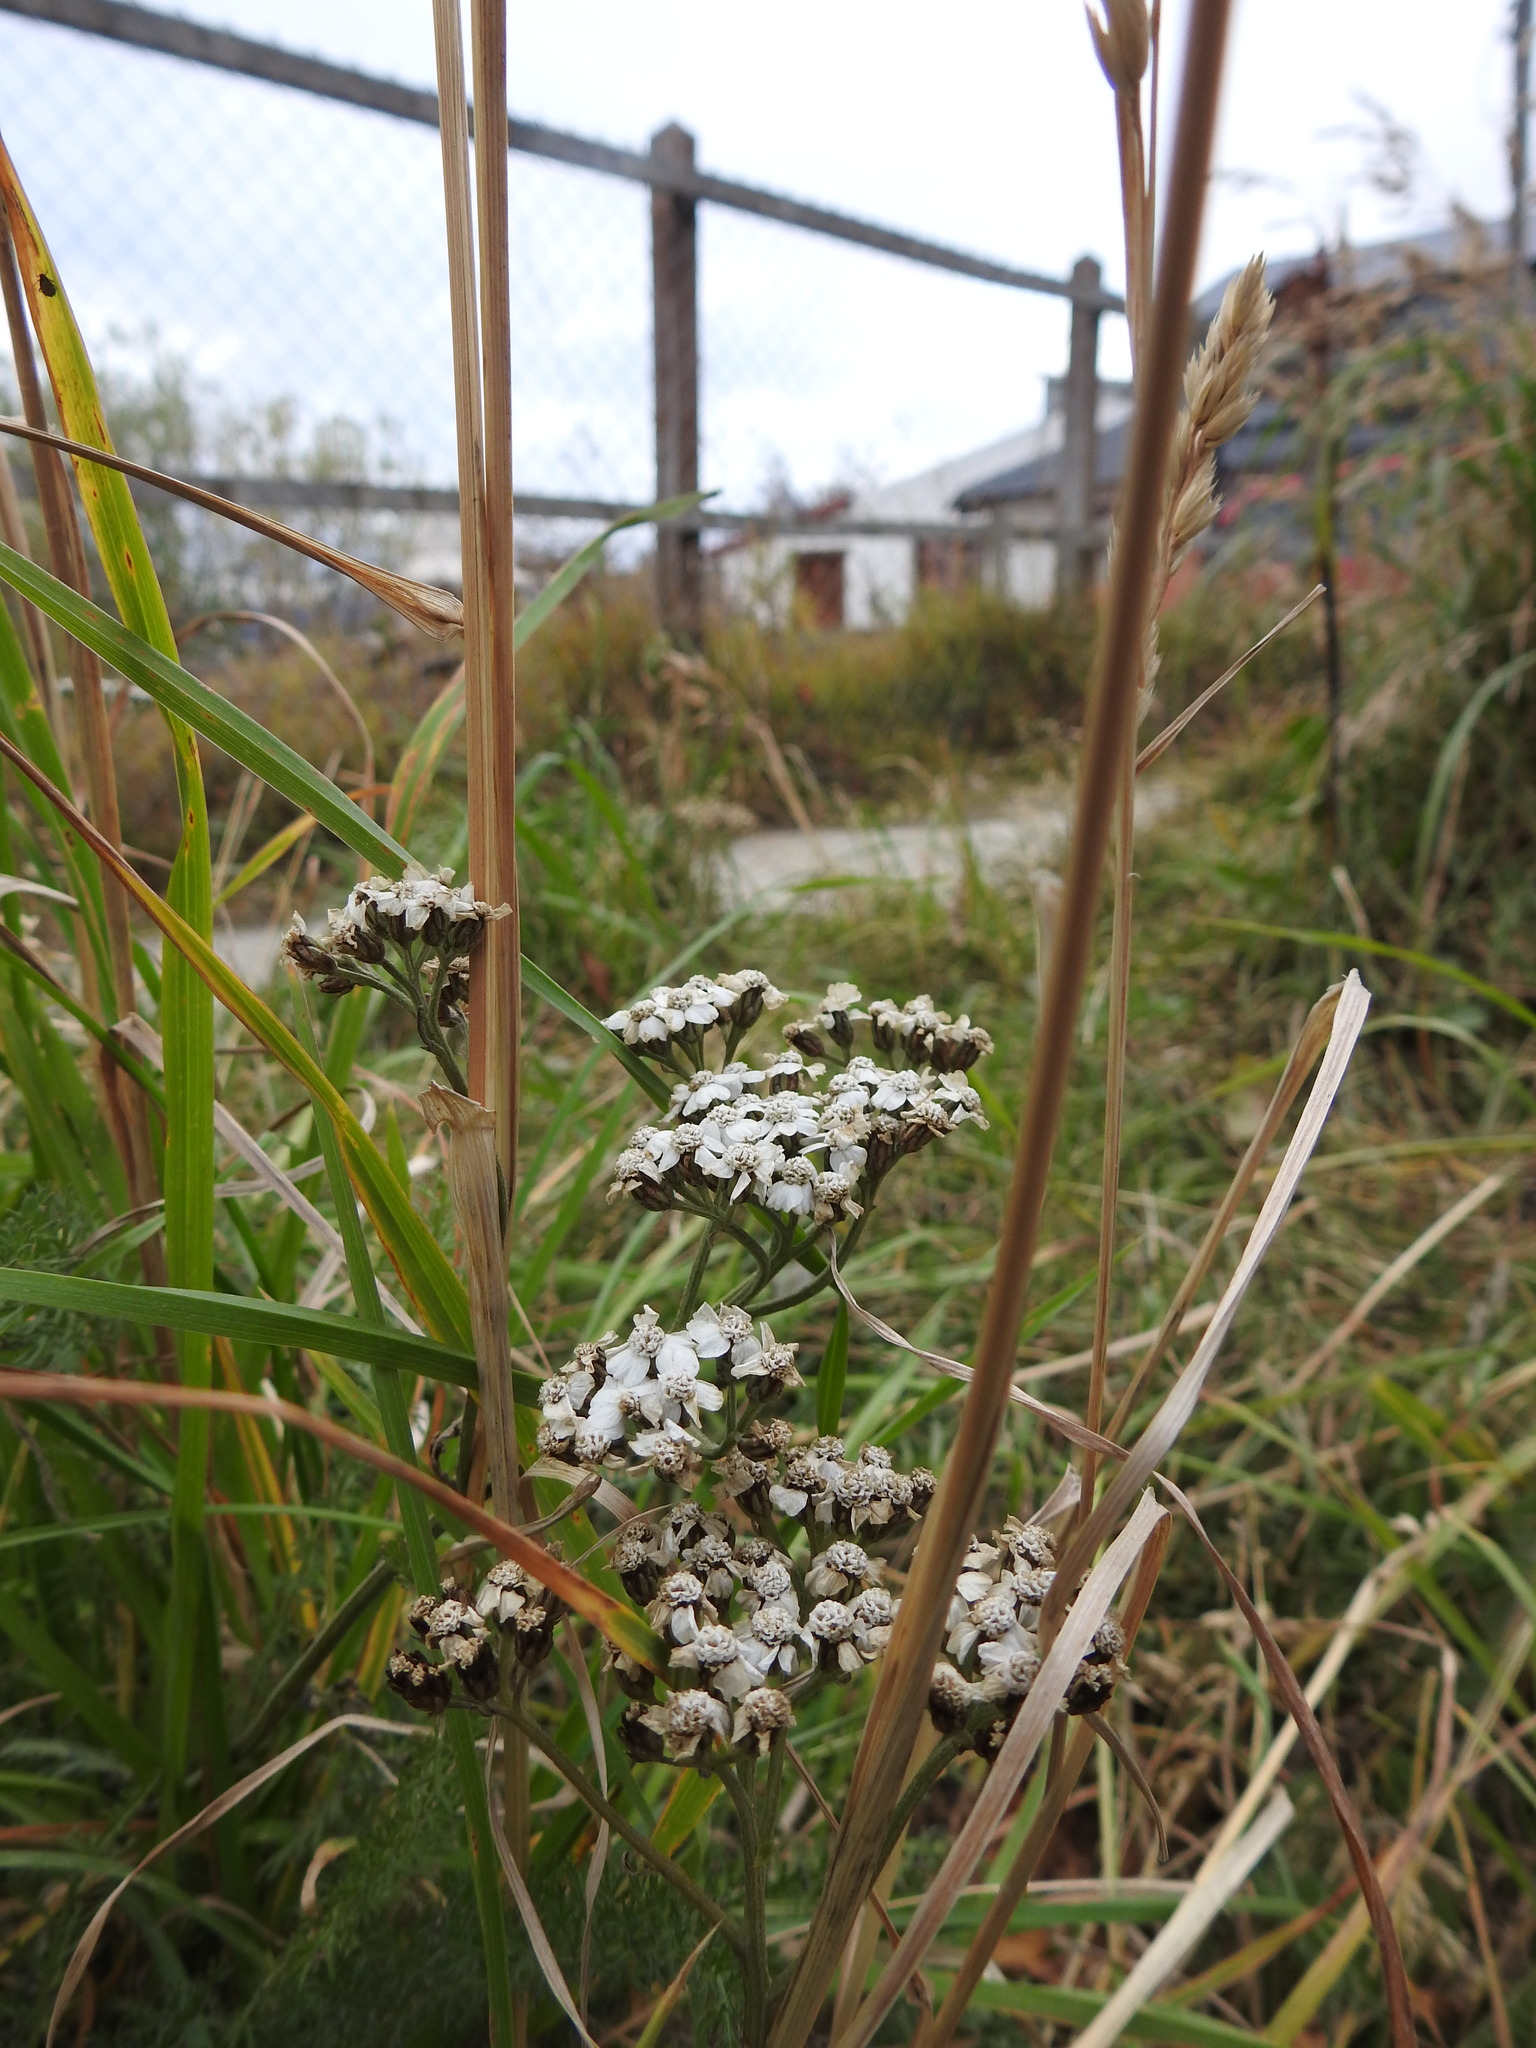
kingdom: Plantae
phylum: Tracheophyta
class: Magnoliopsida
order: Asterales
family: Asteraceae
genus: Achillea
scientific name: Achillea millefolium
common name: Yarrow
